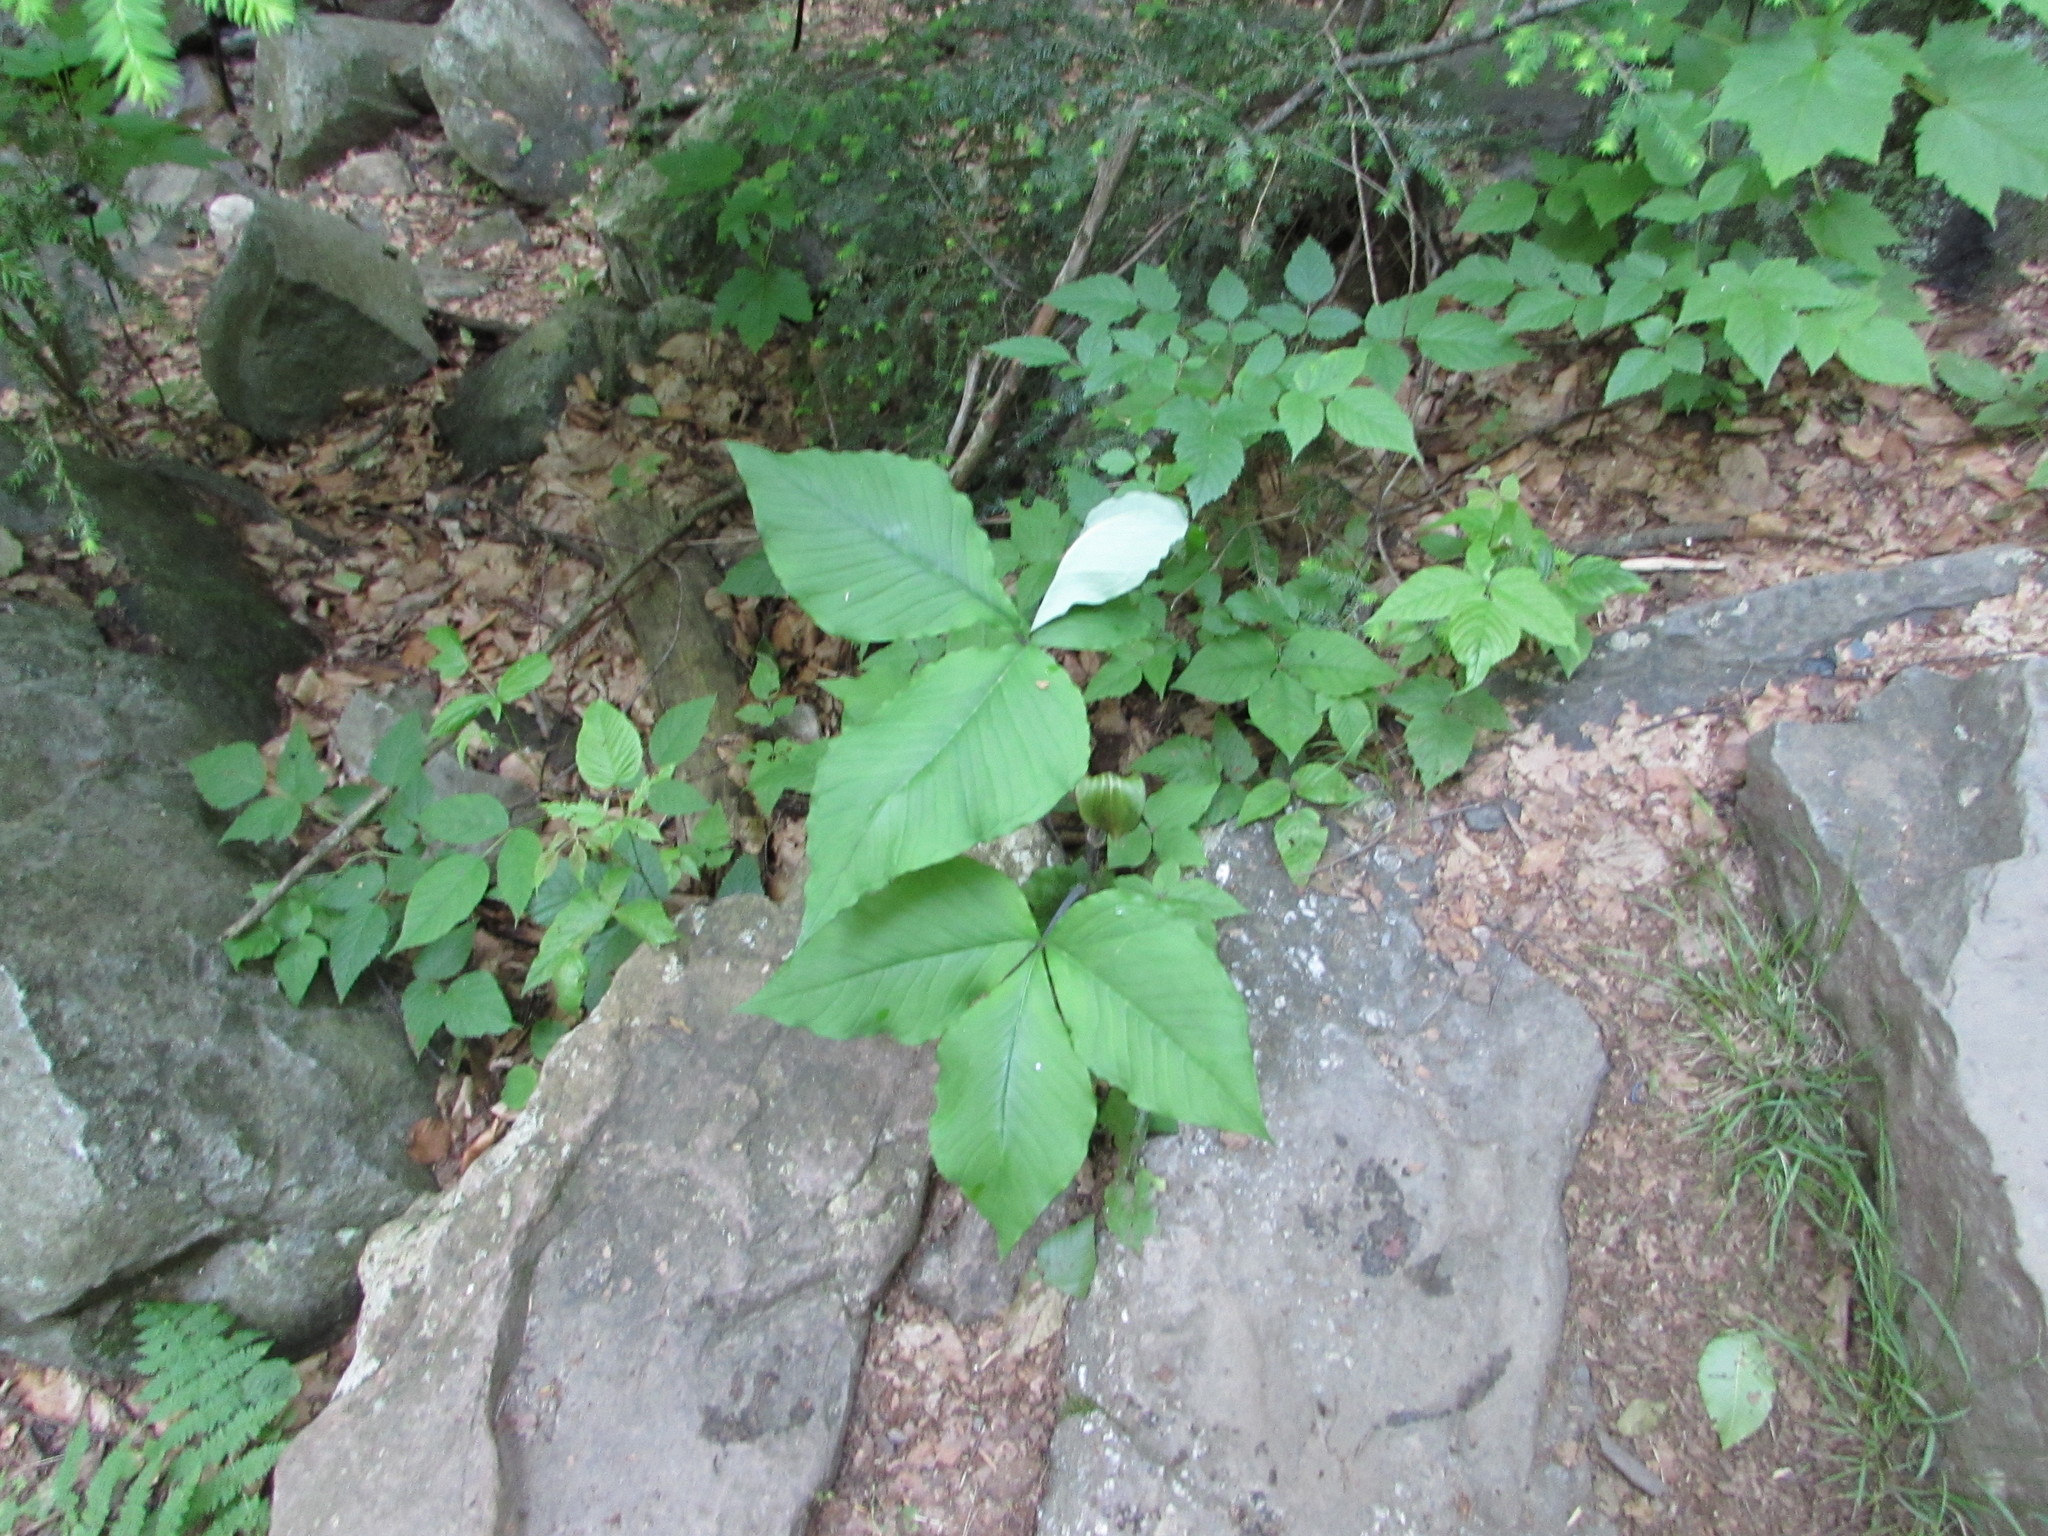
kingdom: Plantae
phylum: Tracheophyta
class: Liliopsida
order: Alismatales
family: Araceae
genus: Arisaema
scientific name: Arisaema triphyllum
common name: Jack-in-the-pulpit
